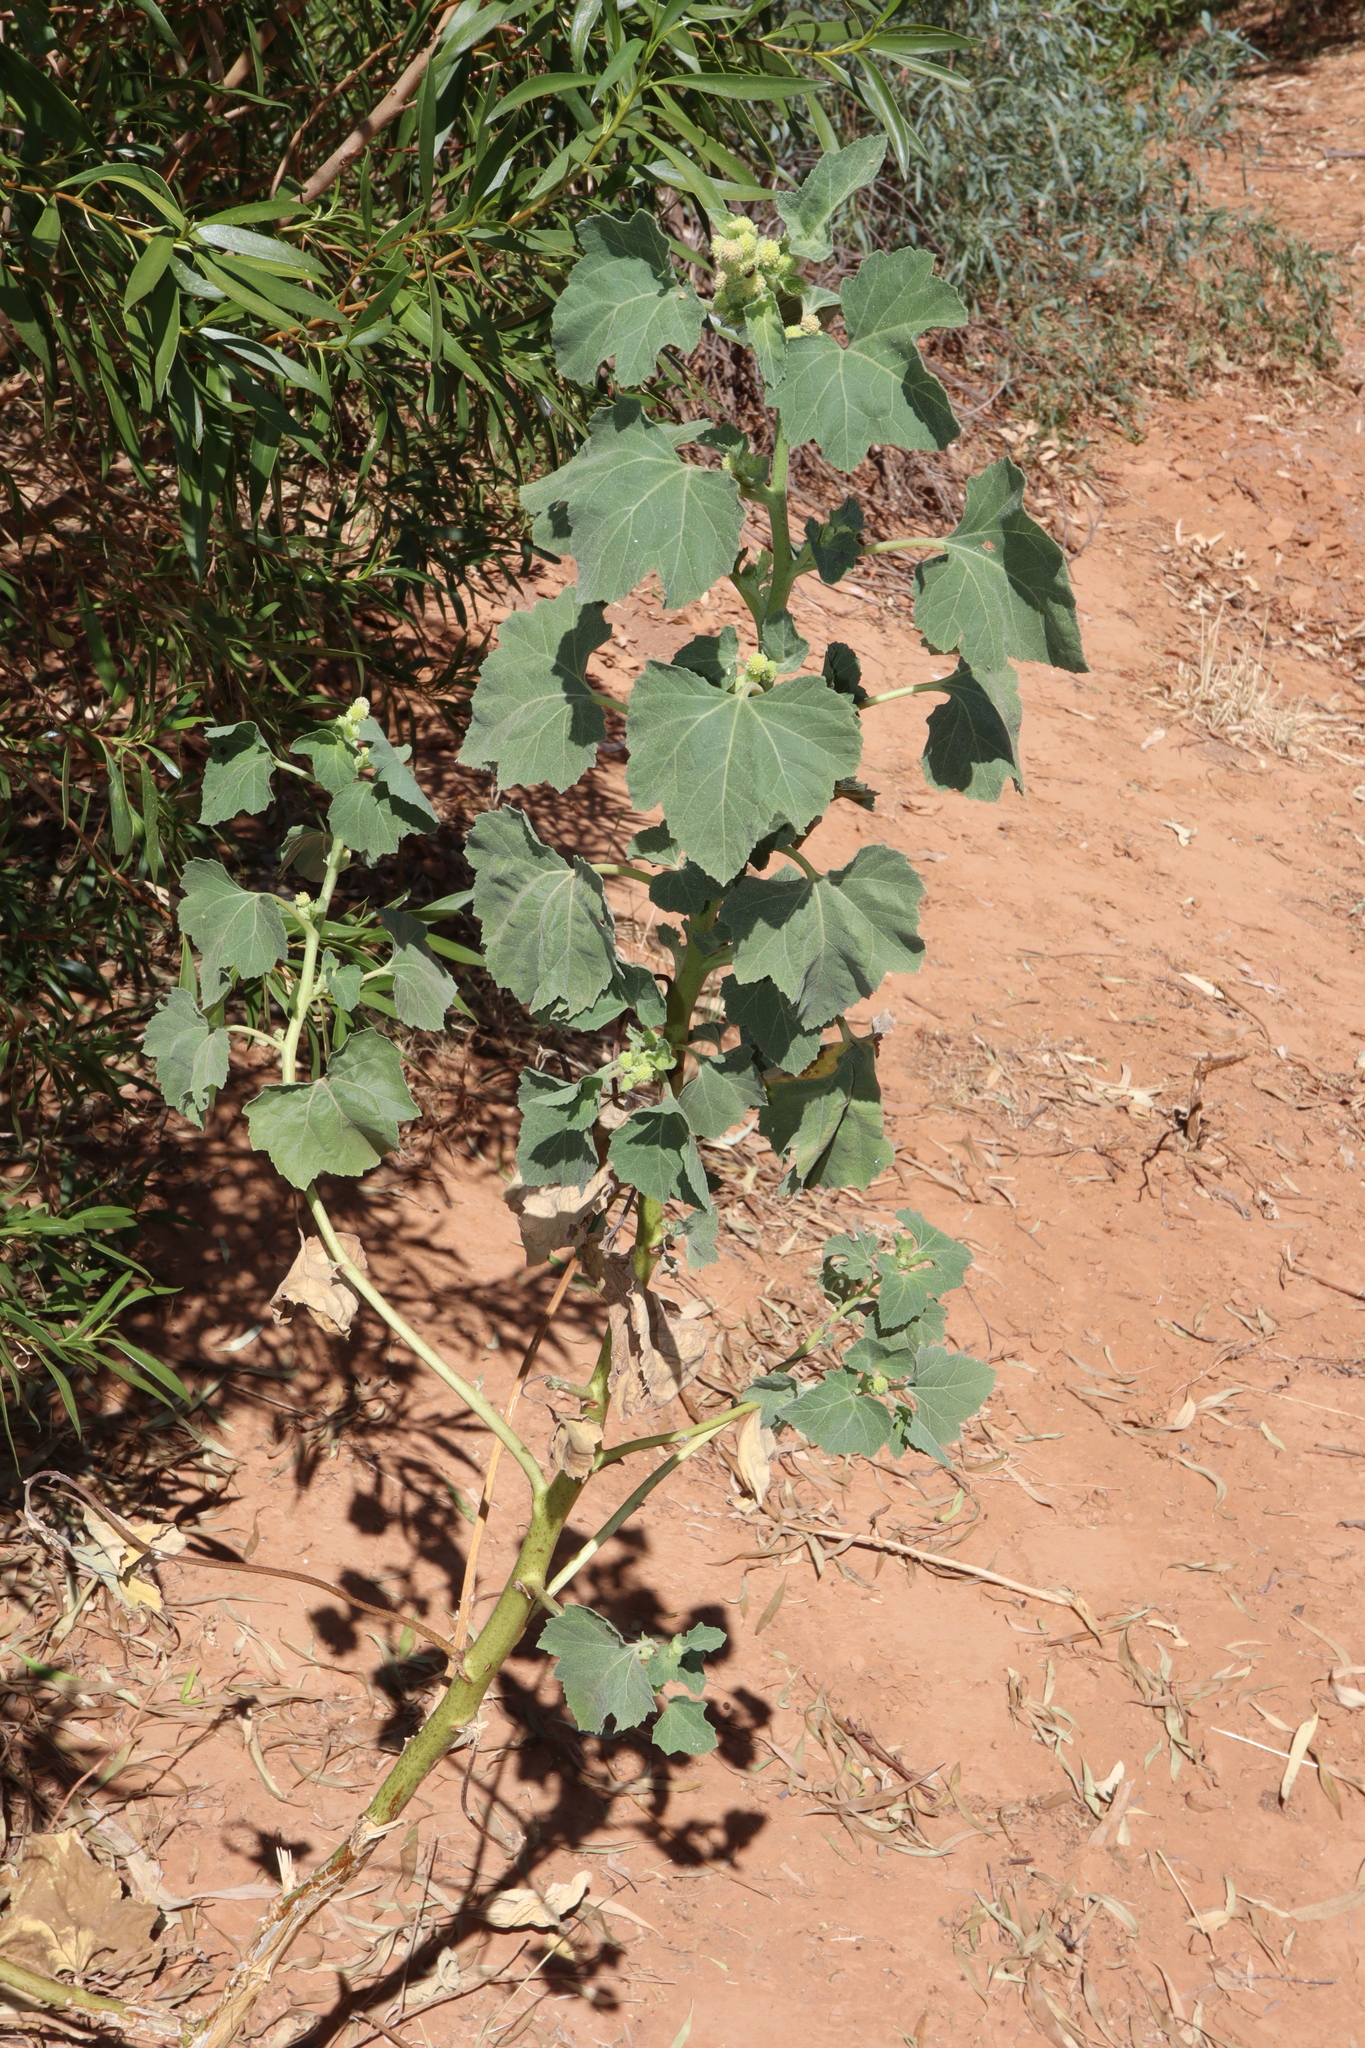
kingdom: Plantae
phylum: Tracheophyta
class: Magnoliopsida
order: Asterales
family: Asteraceae
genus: Xanthium
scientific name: Xanthium strumarium
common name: Rough cocklebur
